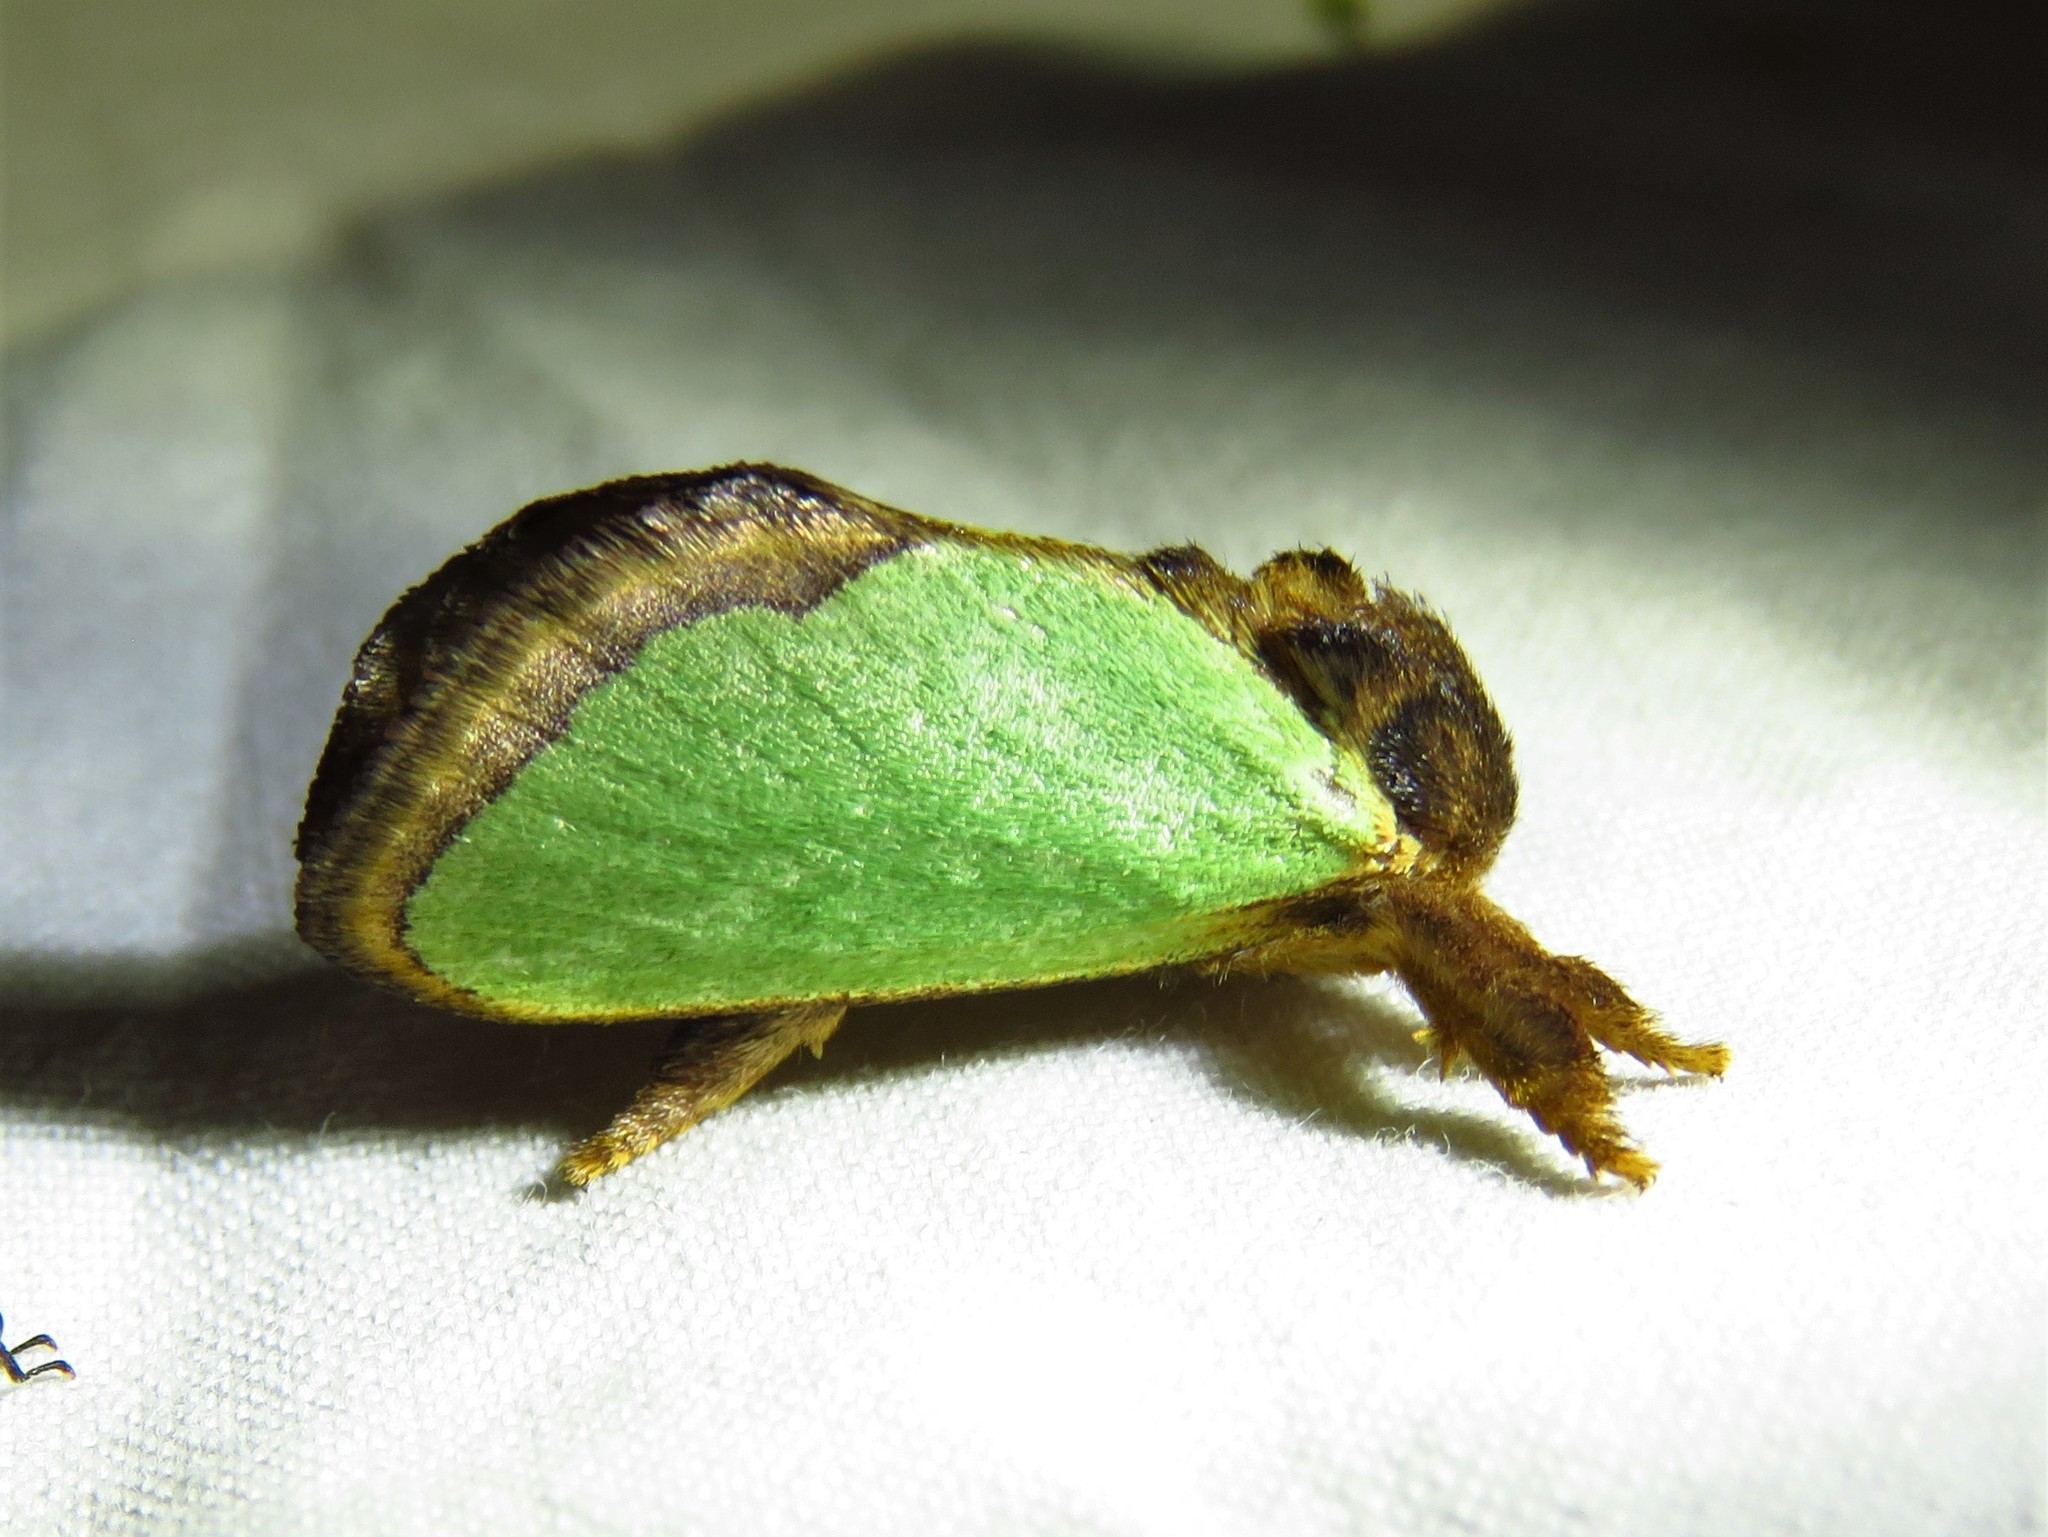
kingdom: Animalia
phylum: Arthropoda
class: Insecta
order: Lepidoptera
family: Limacodidae
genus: Euclea
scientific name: Euclea incisa
